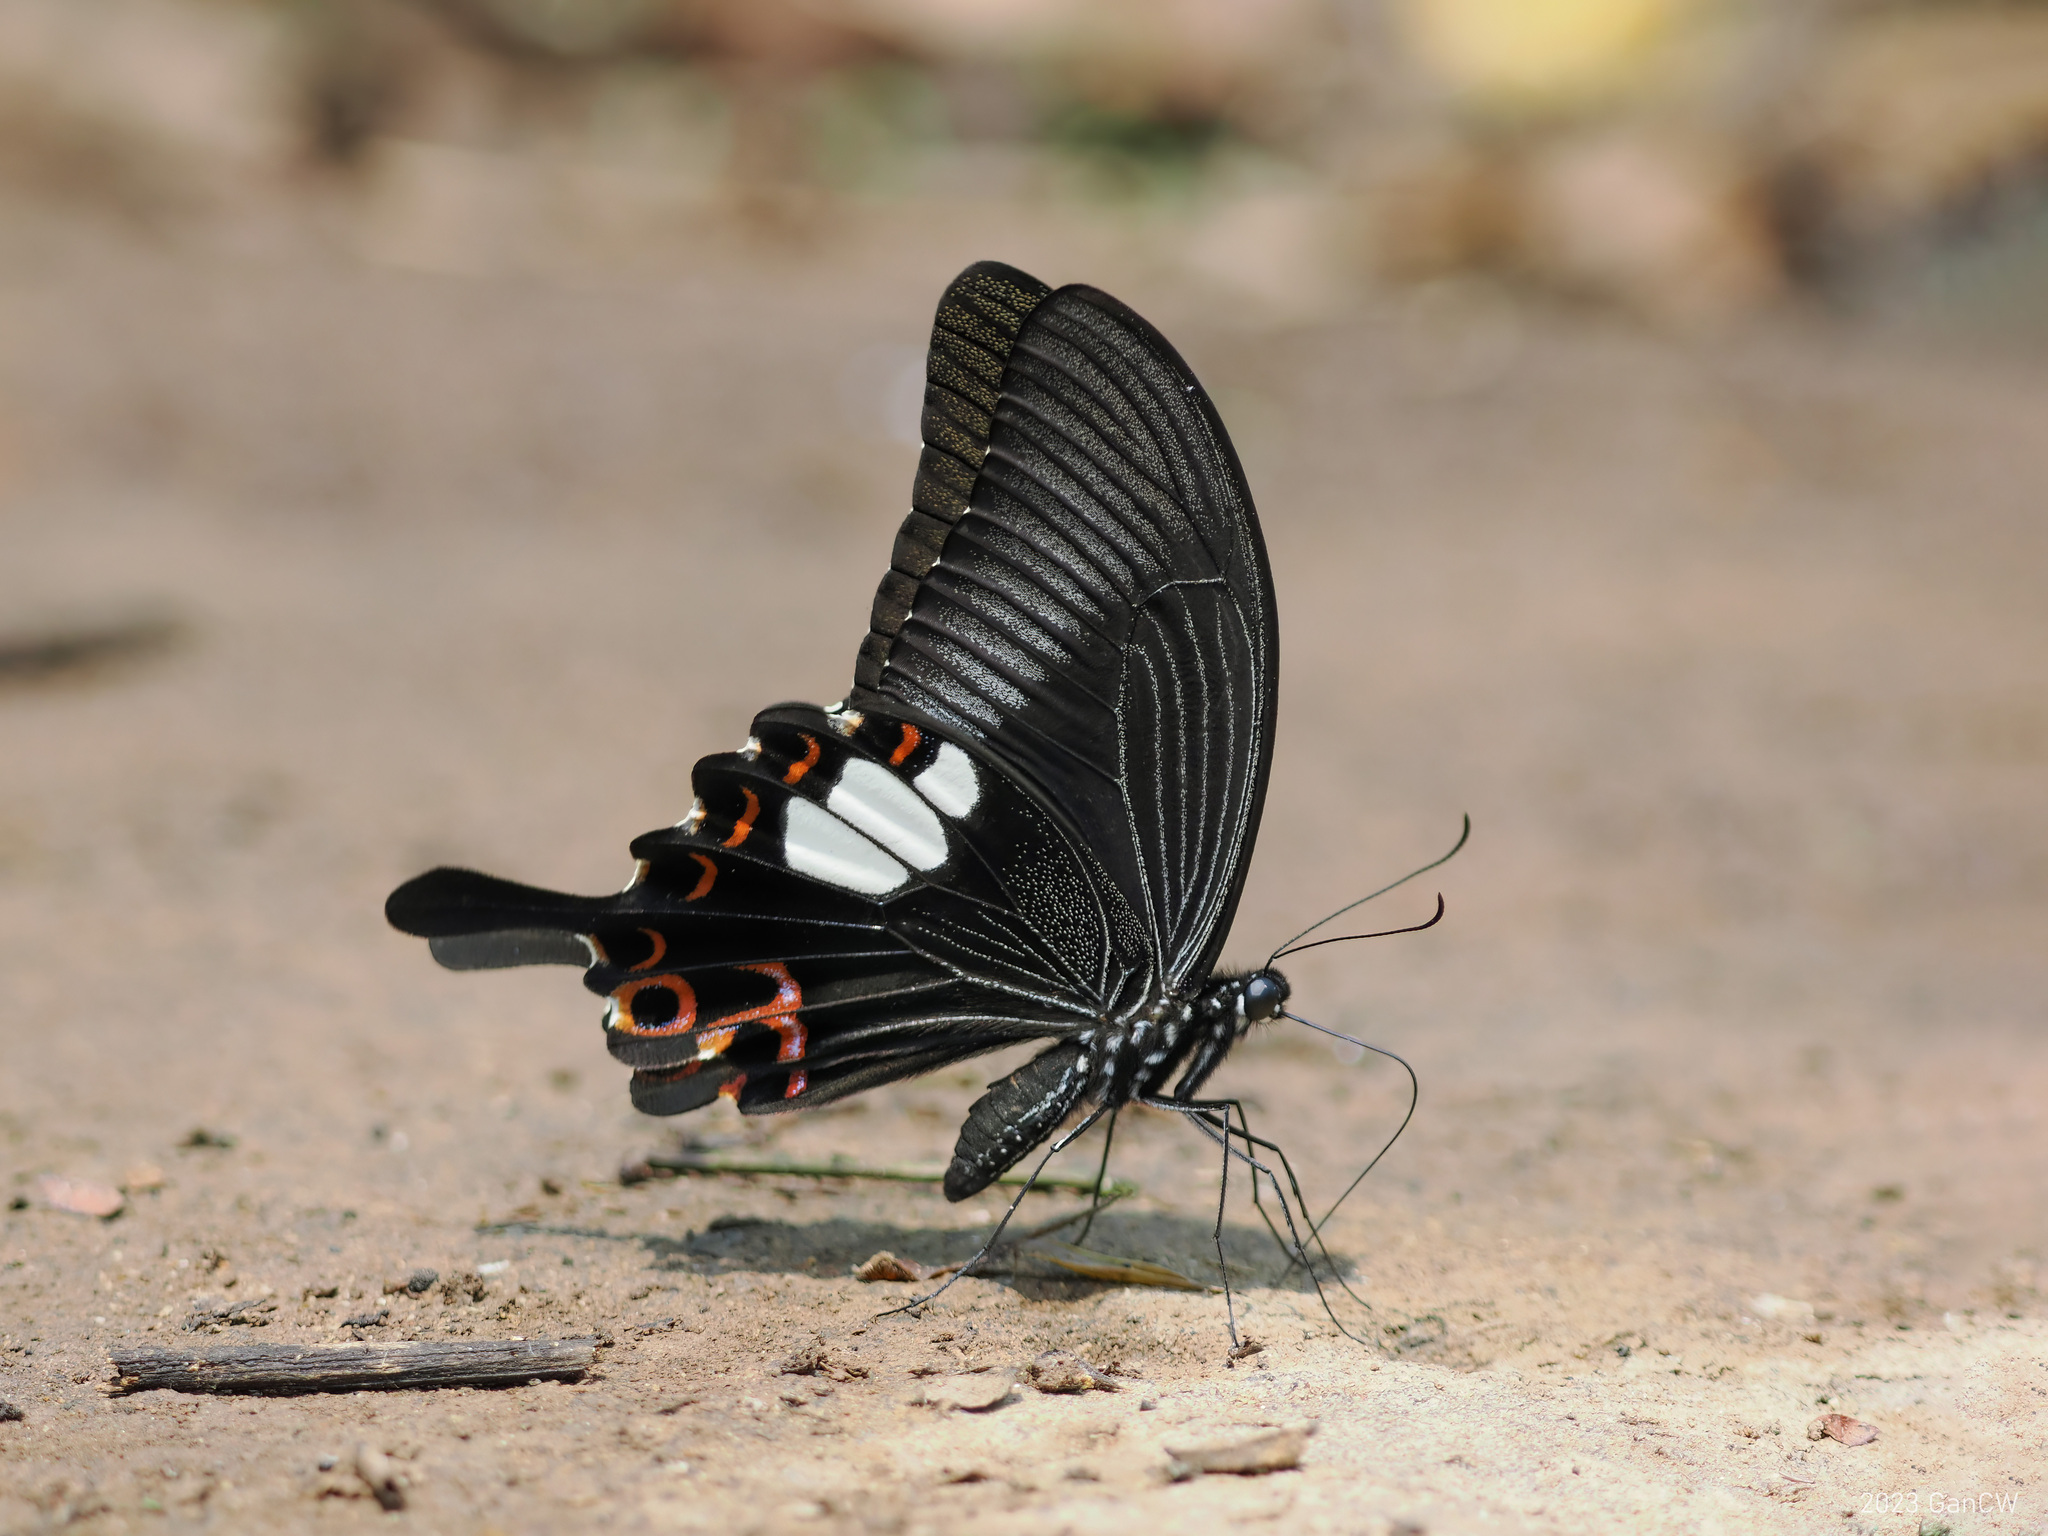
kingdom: Animalia
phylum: Arthropoda
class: Insecta
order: Lepidoptera
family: Papilionidae
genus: Papilio
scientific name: Papilio helenus
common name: Red helen
